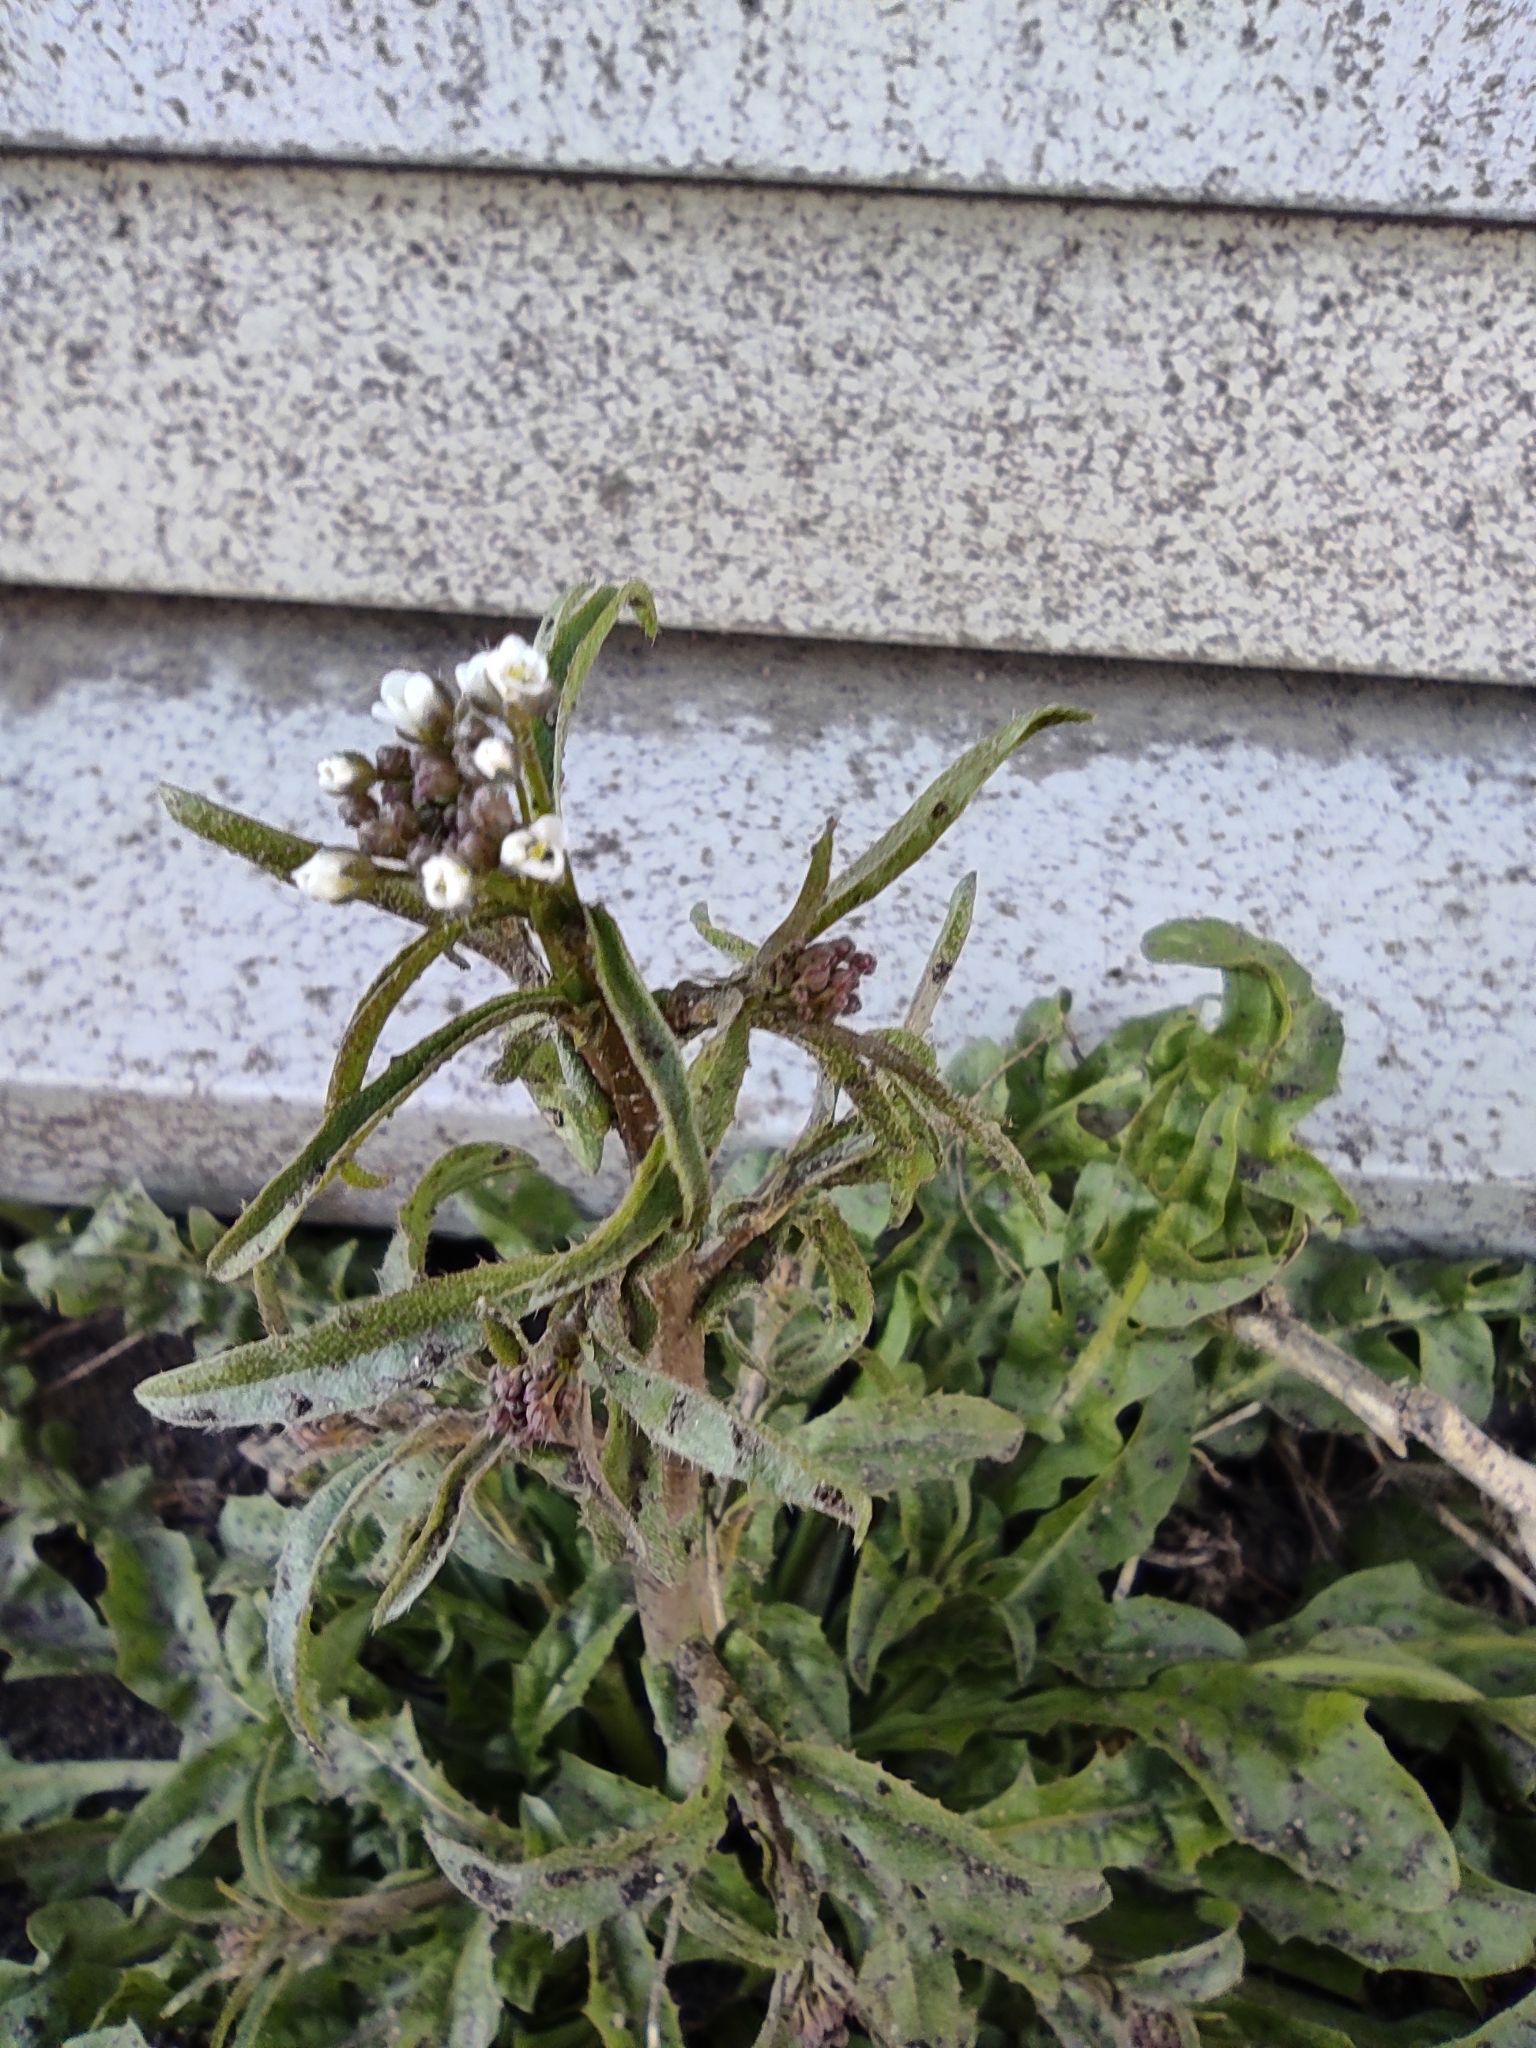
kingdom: Plantae
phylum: Tracheophyta
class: Magnoliopsida
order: Brassicales
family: Brassicaceae
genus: Capsella
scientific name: Capsella bursa-pastoris
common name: Shepherd's purse
